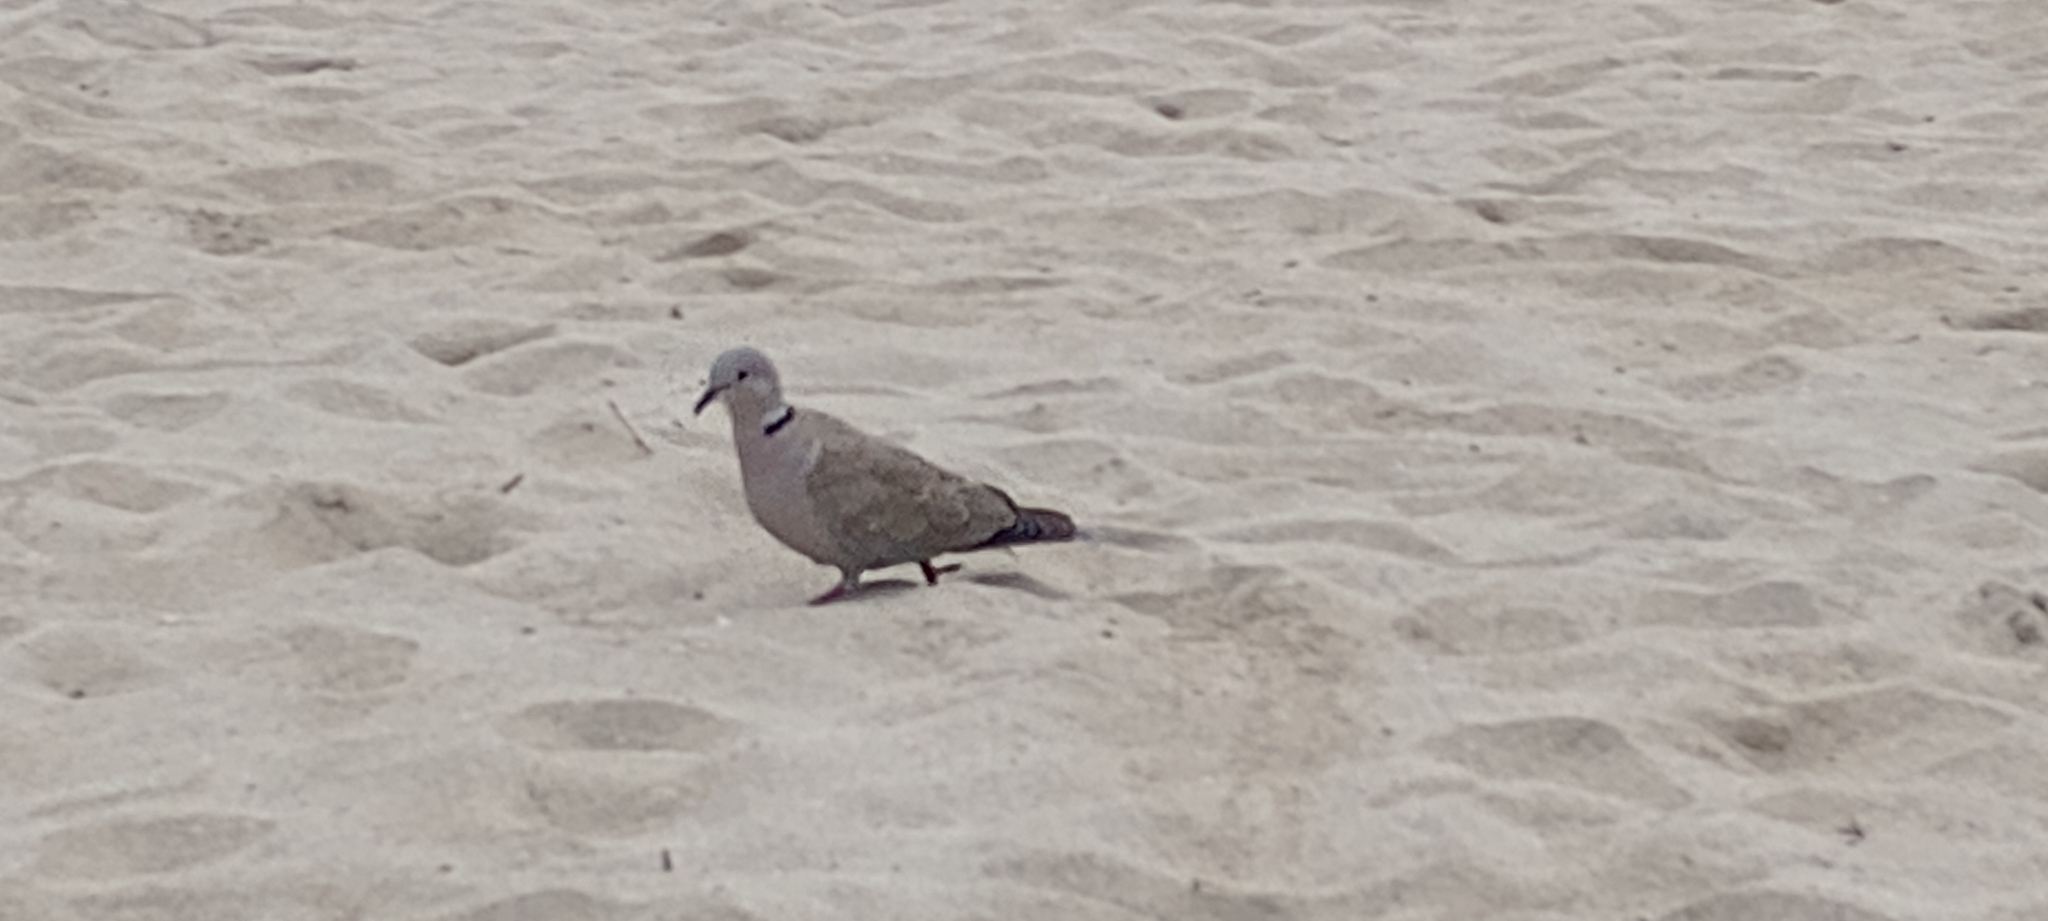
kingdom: Animalia
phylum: Chordata
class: Aves
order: Columbiformes
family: Columbidae
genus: Streptopelia
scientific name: Streptopelia decaocto
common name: Eurasian collared dove
